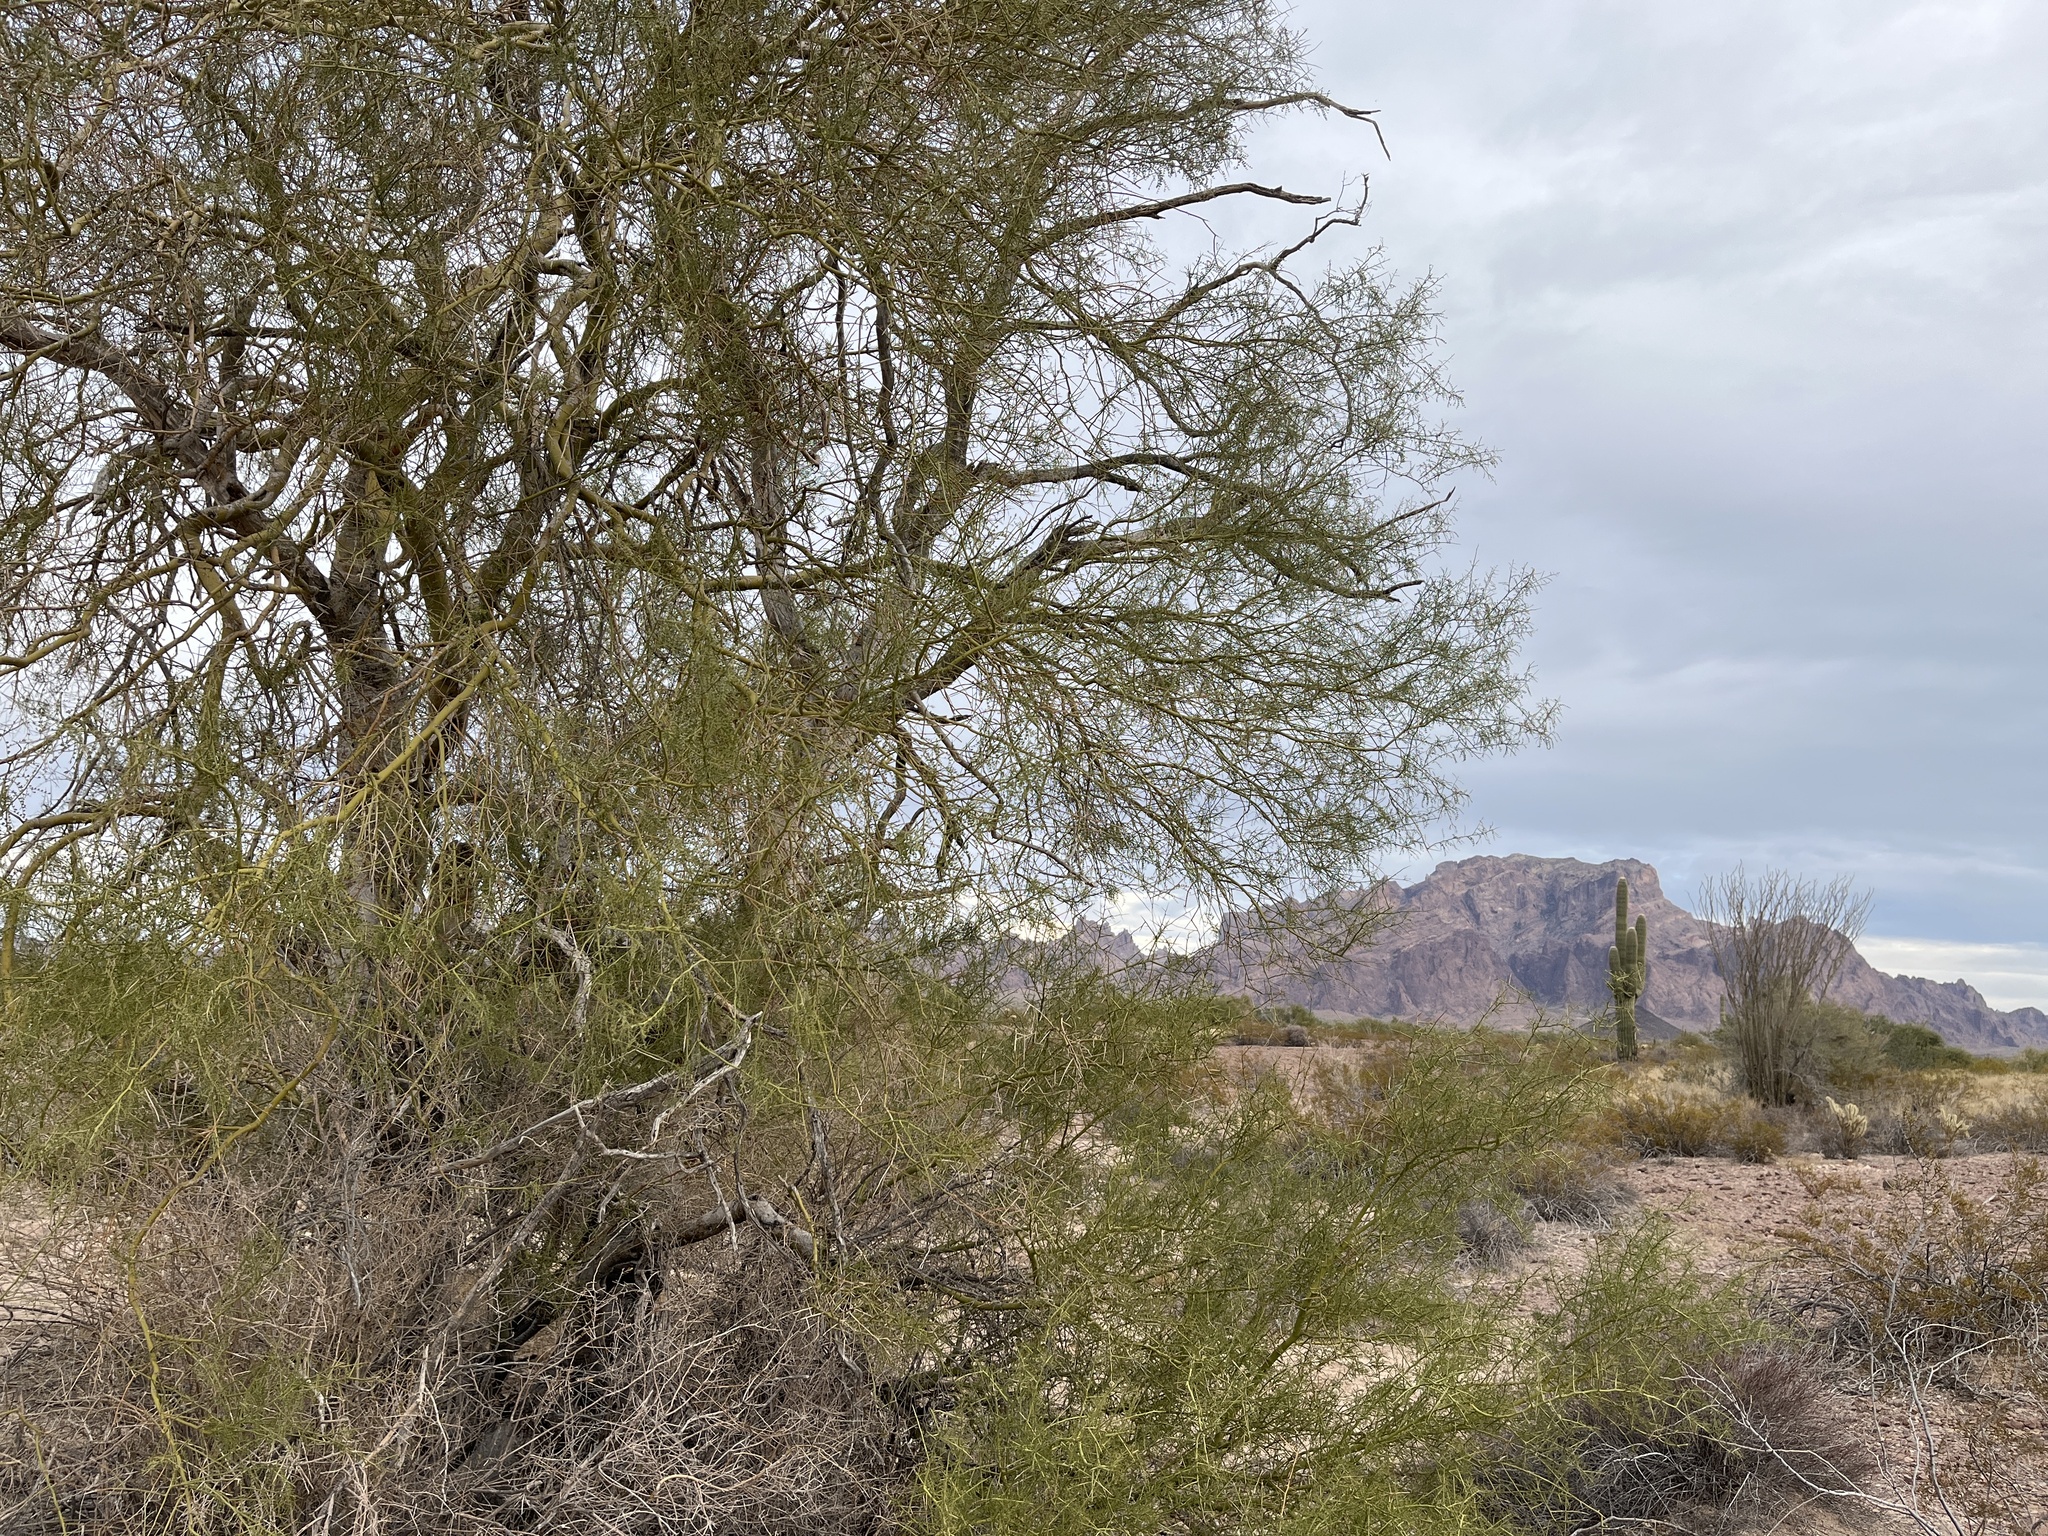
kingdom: Plantae
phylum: Tracheophyta
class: Magnoliopsida
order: Fabales
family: Fabaceae
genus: Parkinsonia
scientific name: Parkinsonia microphylla
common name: Yellow paloverde
